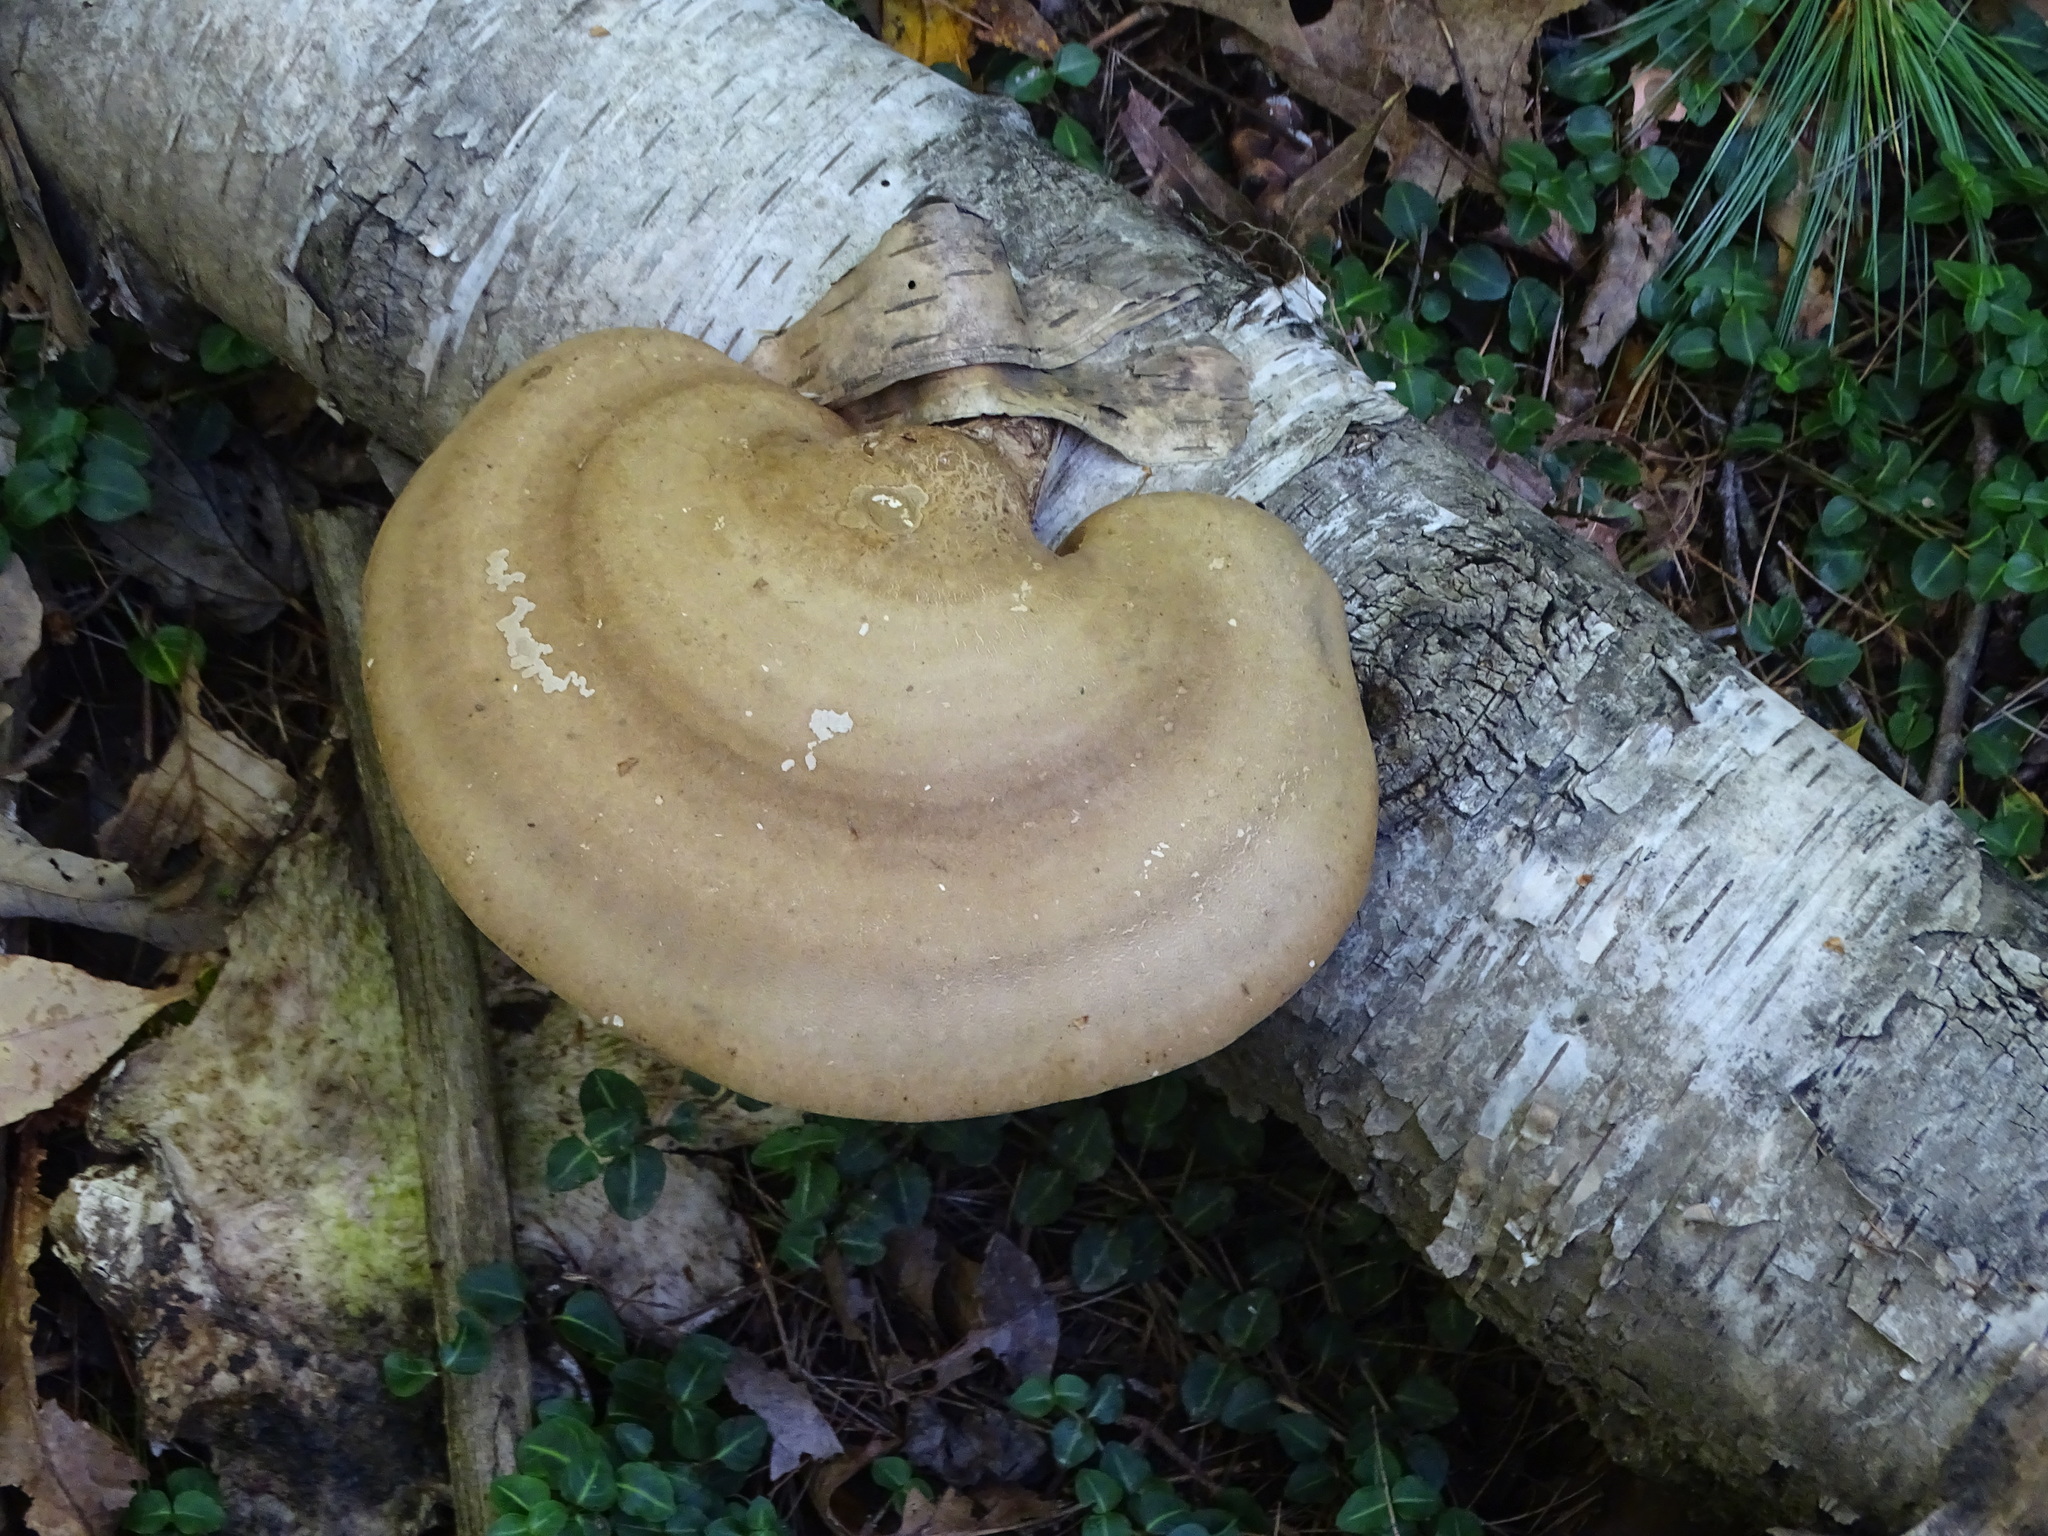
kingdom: Fungi
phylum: Basidiomycota
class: Agaricomycetes
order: Polyporales
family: Fomitopsidaceae
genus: Fomitopsis
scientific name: Fomitopsis betulina
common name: Birch polypore
